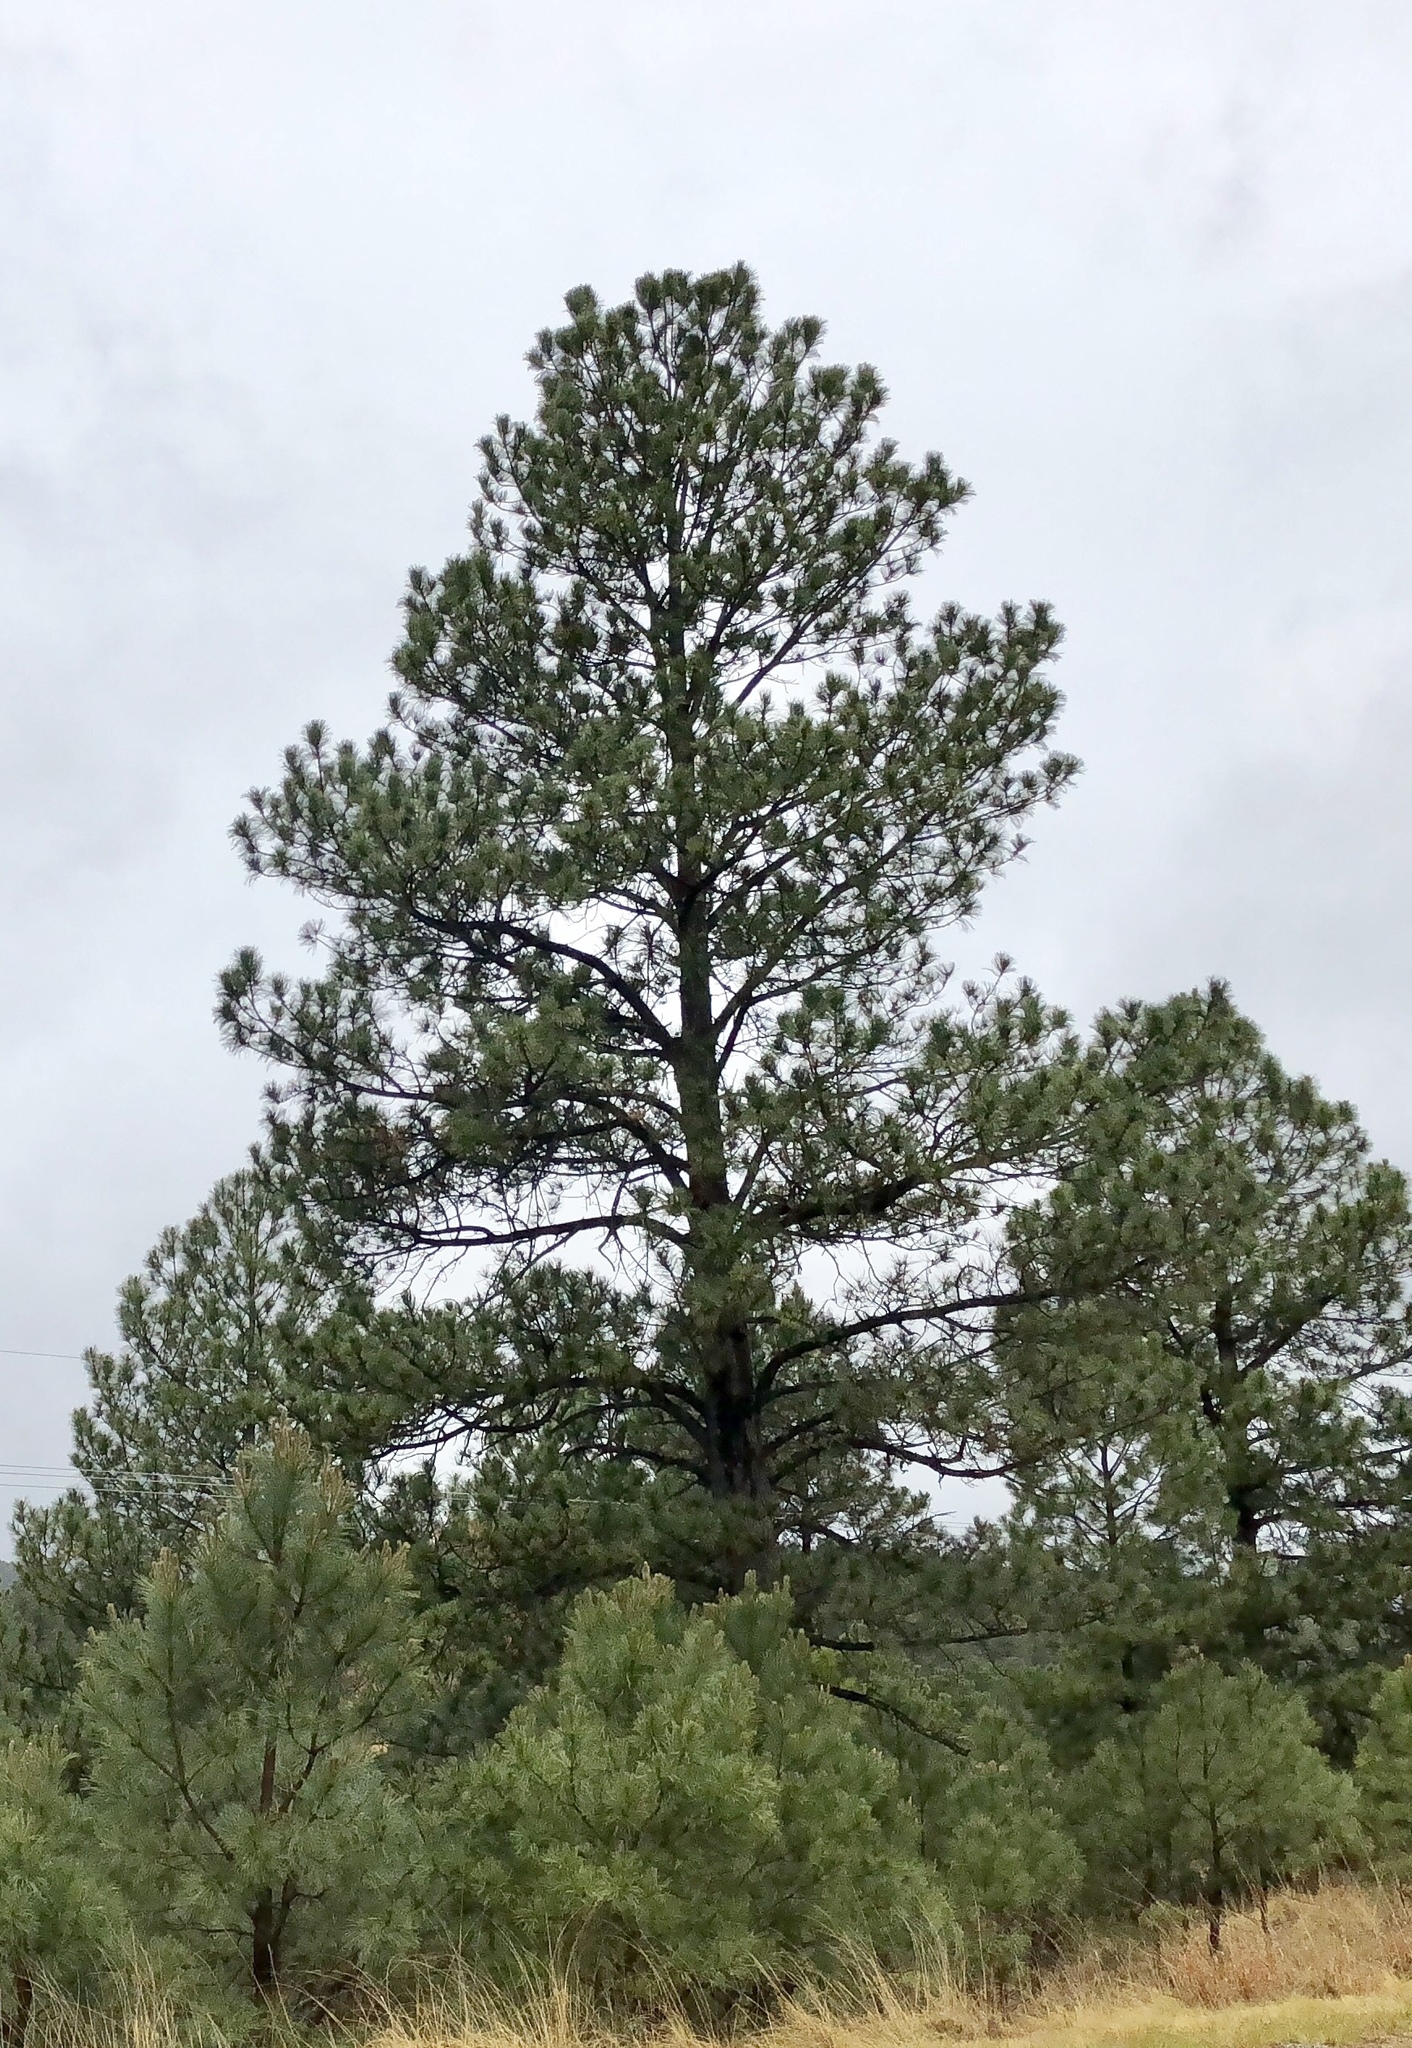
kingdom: Plantae
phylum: Tracheophyta
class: Pinopsida
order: Pinales
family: Pinaceae
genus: Pinus
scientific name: Pinus ponderosa
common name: Western yellow-pine
